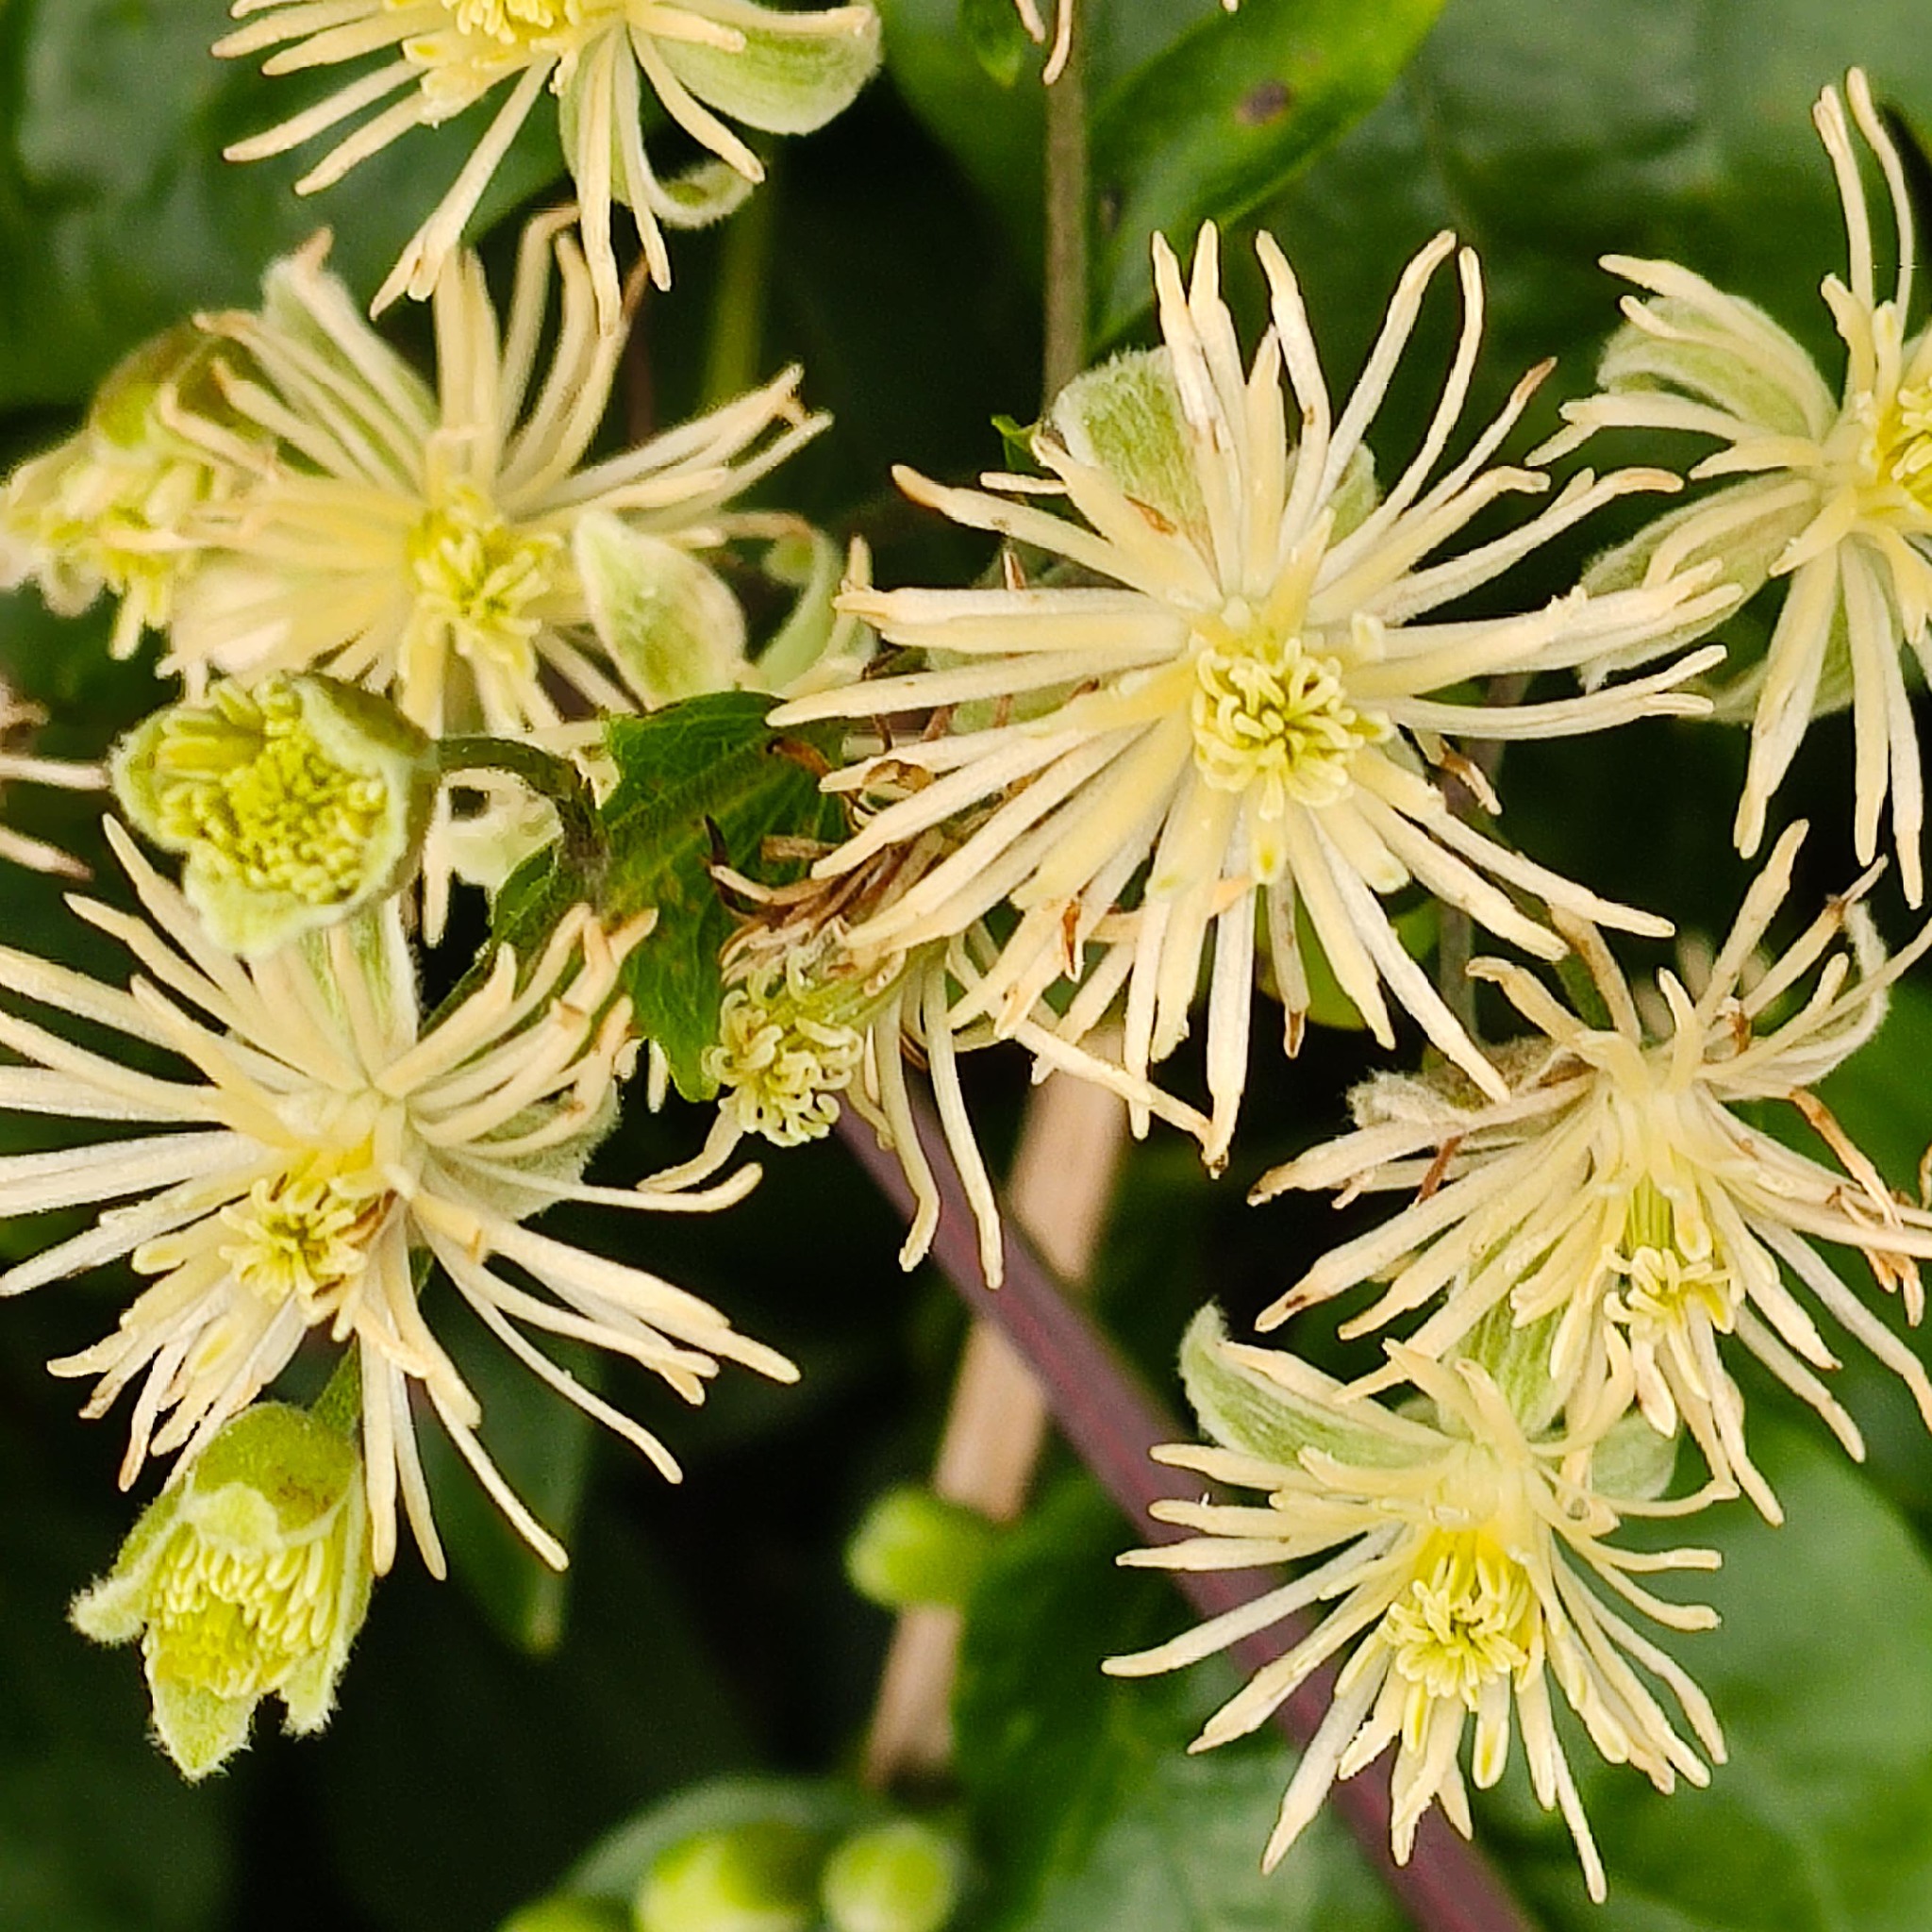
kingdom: Plantae
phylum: Tracheophyta
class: Magnoliopsida
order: Ranunculales
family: Ranunculaceae
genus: Clematis
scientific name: Clematis vitalba
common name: Evergreen clematis
